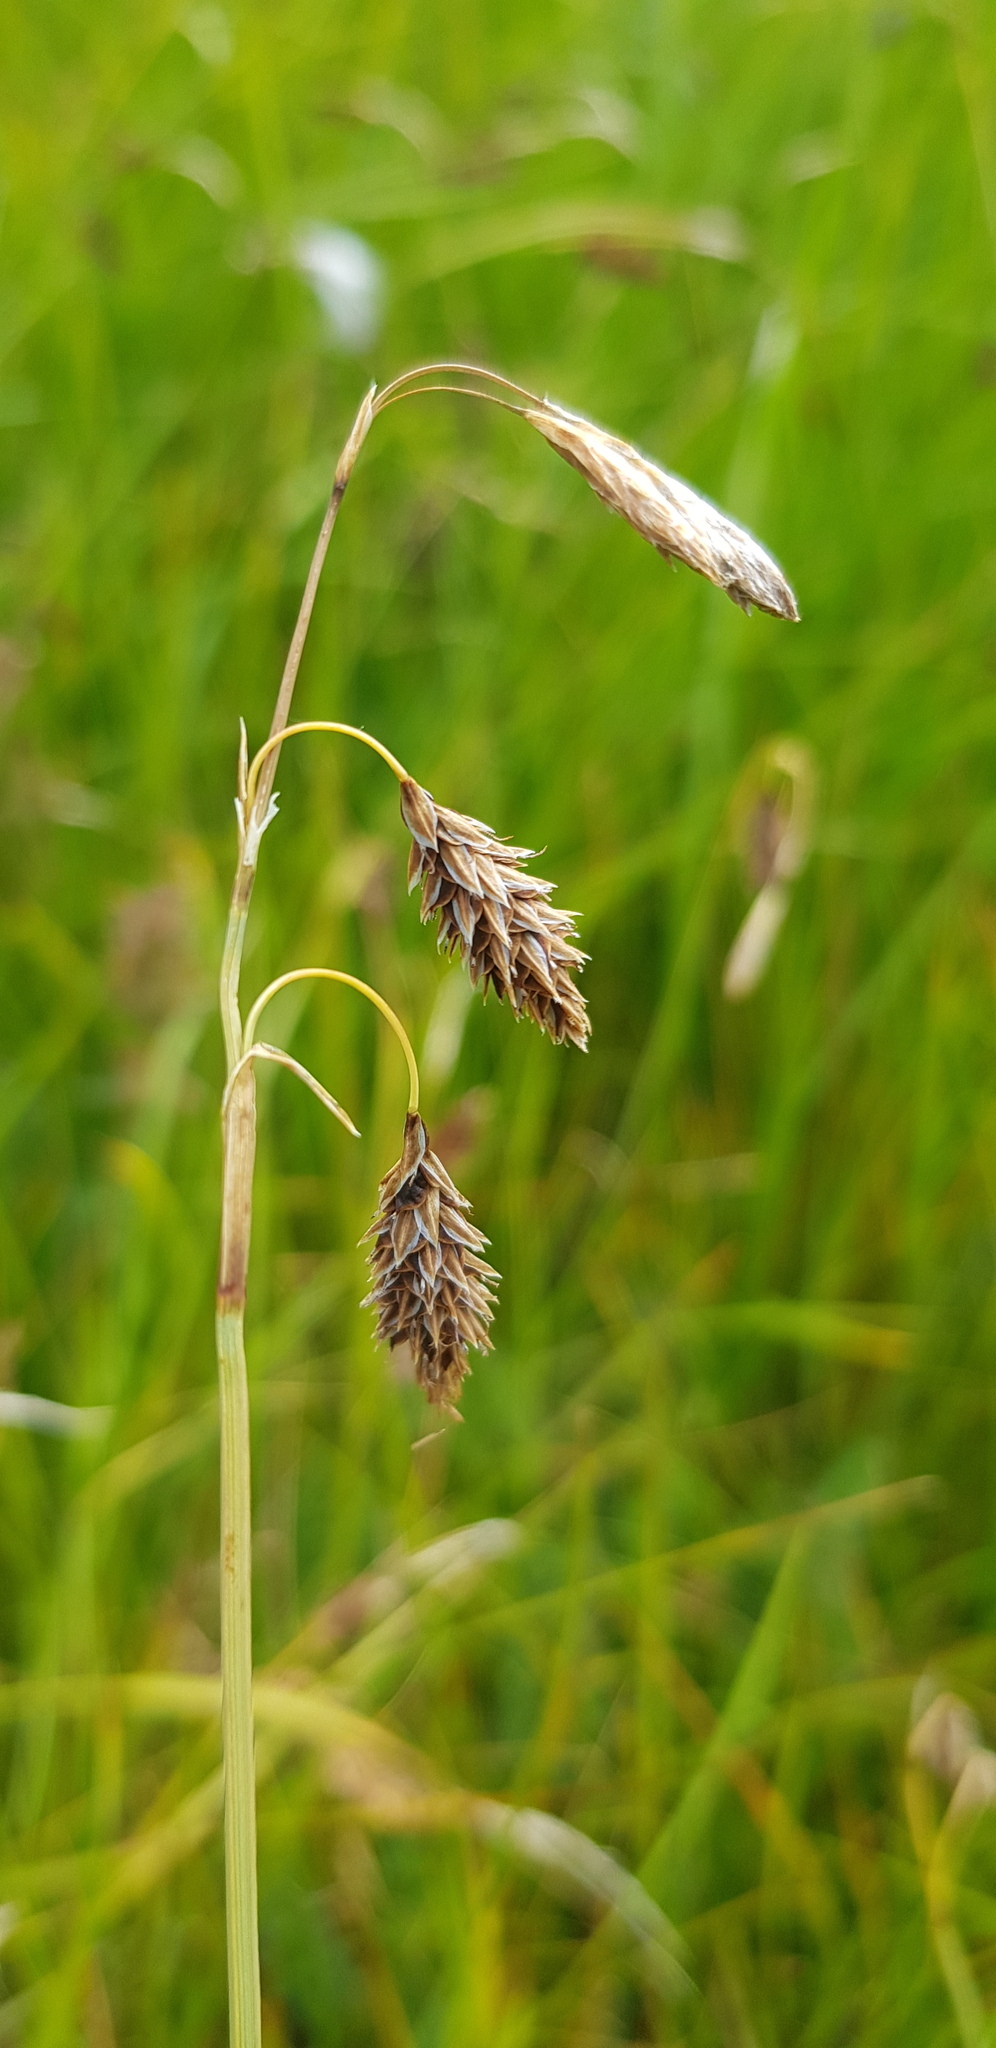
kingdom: Plantae
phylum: Tracheophyta
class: Liliopsida
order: Poales
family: Cyperaceae
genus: Carex
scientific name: Carex ledebouriana
